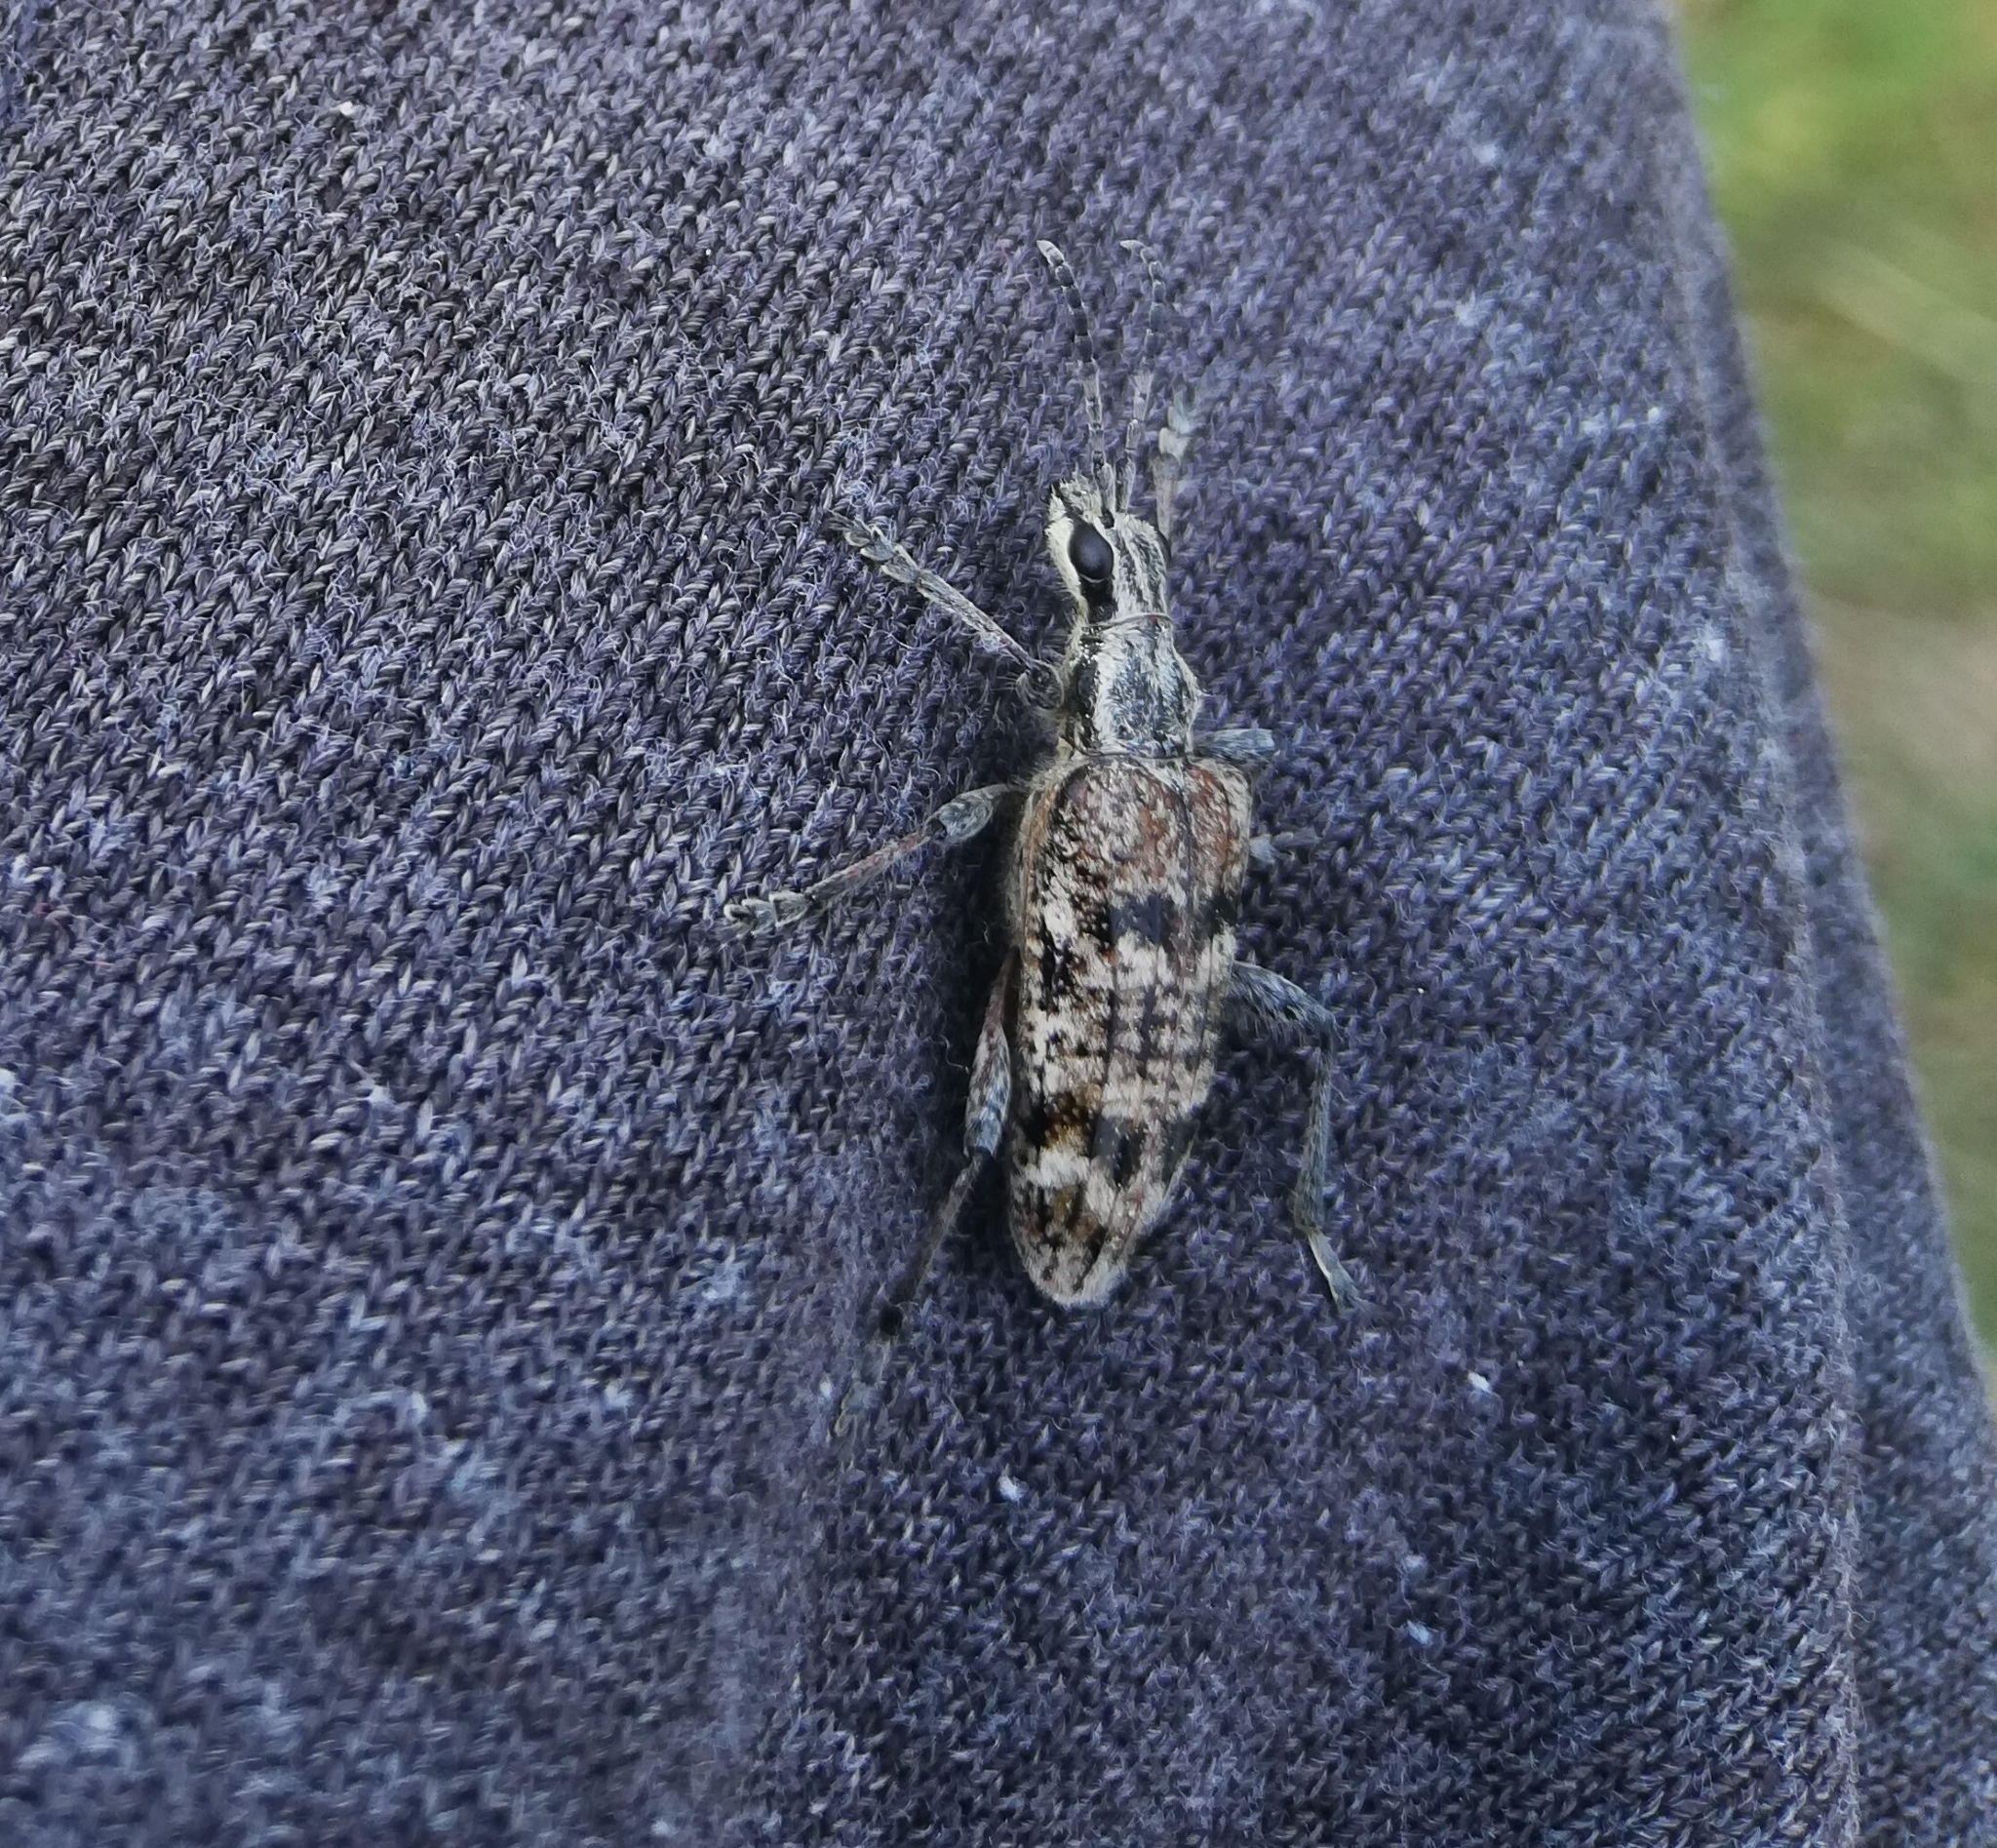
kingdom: Animalia
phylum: Arthropoda
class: Insecta
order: Coleoptera
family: Cerambycidae
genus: Rhagium
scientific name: Rhagium inquisitor
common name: Ribbed pine borer
